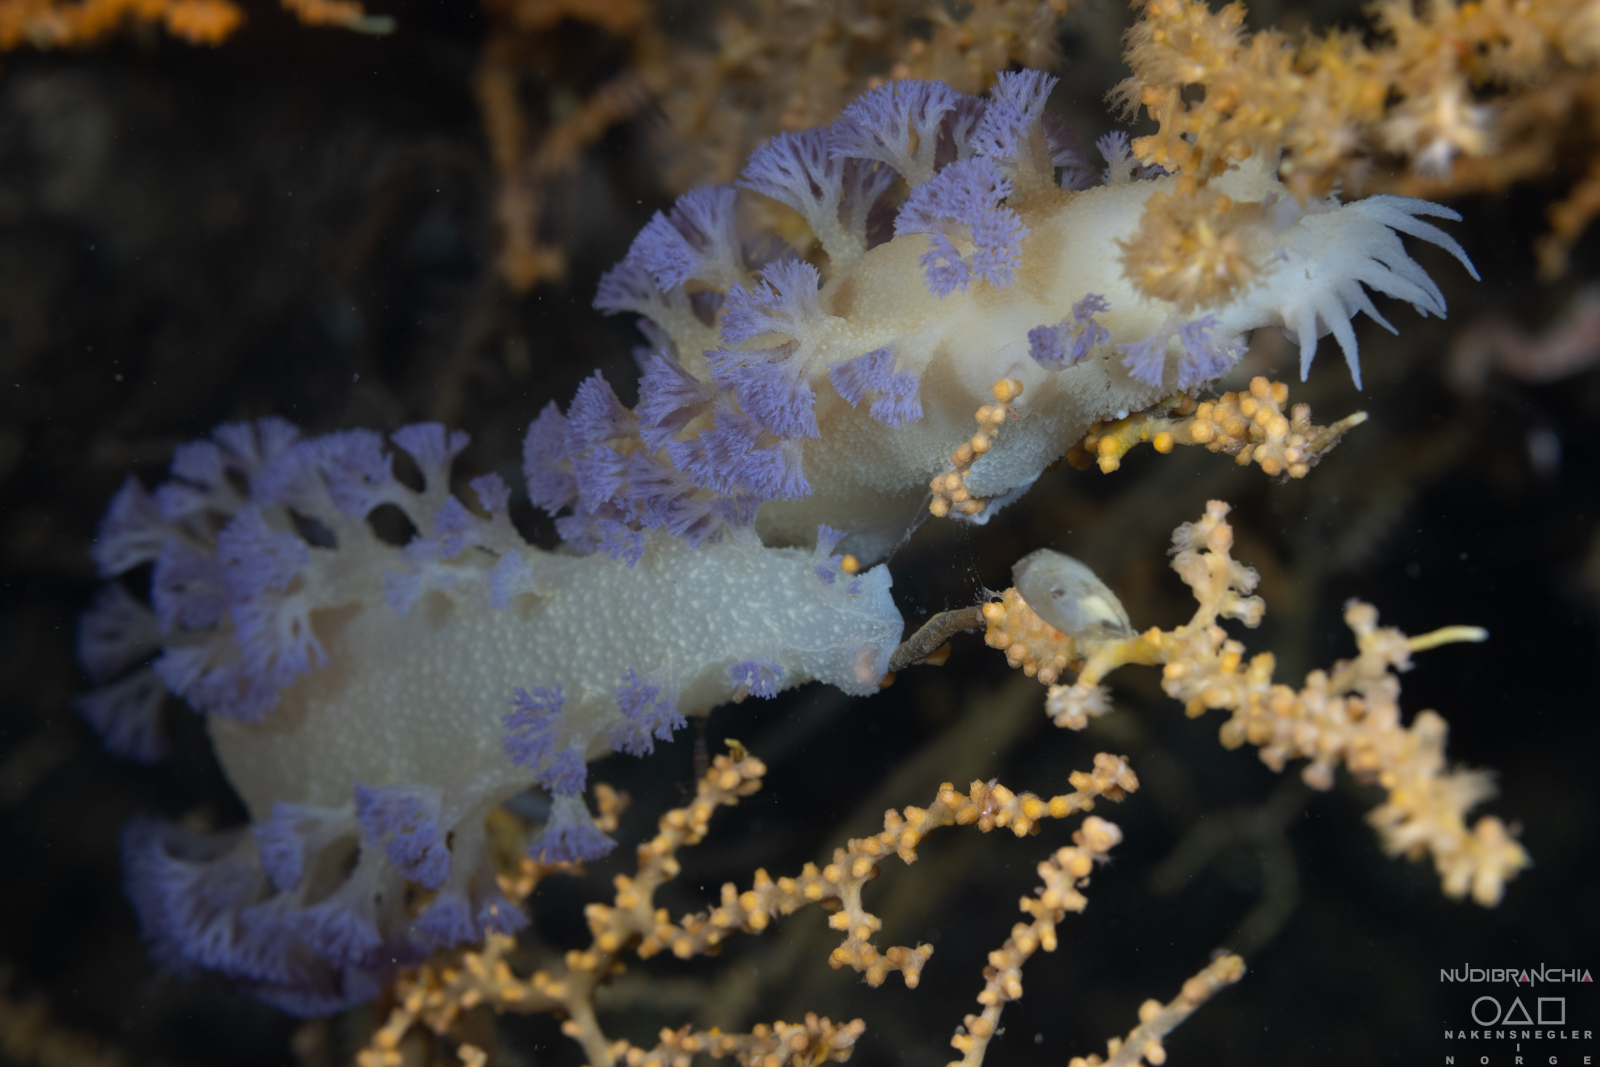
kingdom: Animalia
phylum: Mollusca
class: Gastropoda
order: Nudibranchia
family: Tritoniidae
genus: Tritonia
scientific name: Tritonia griegi
